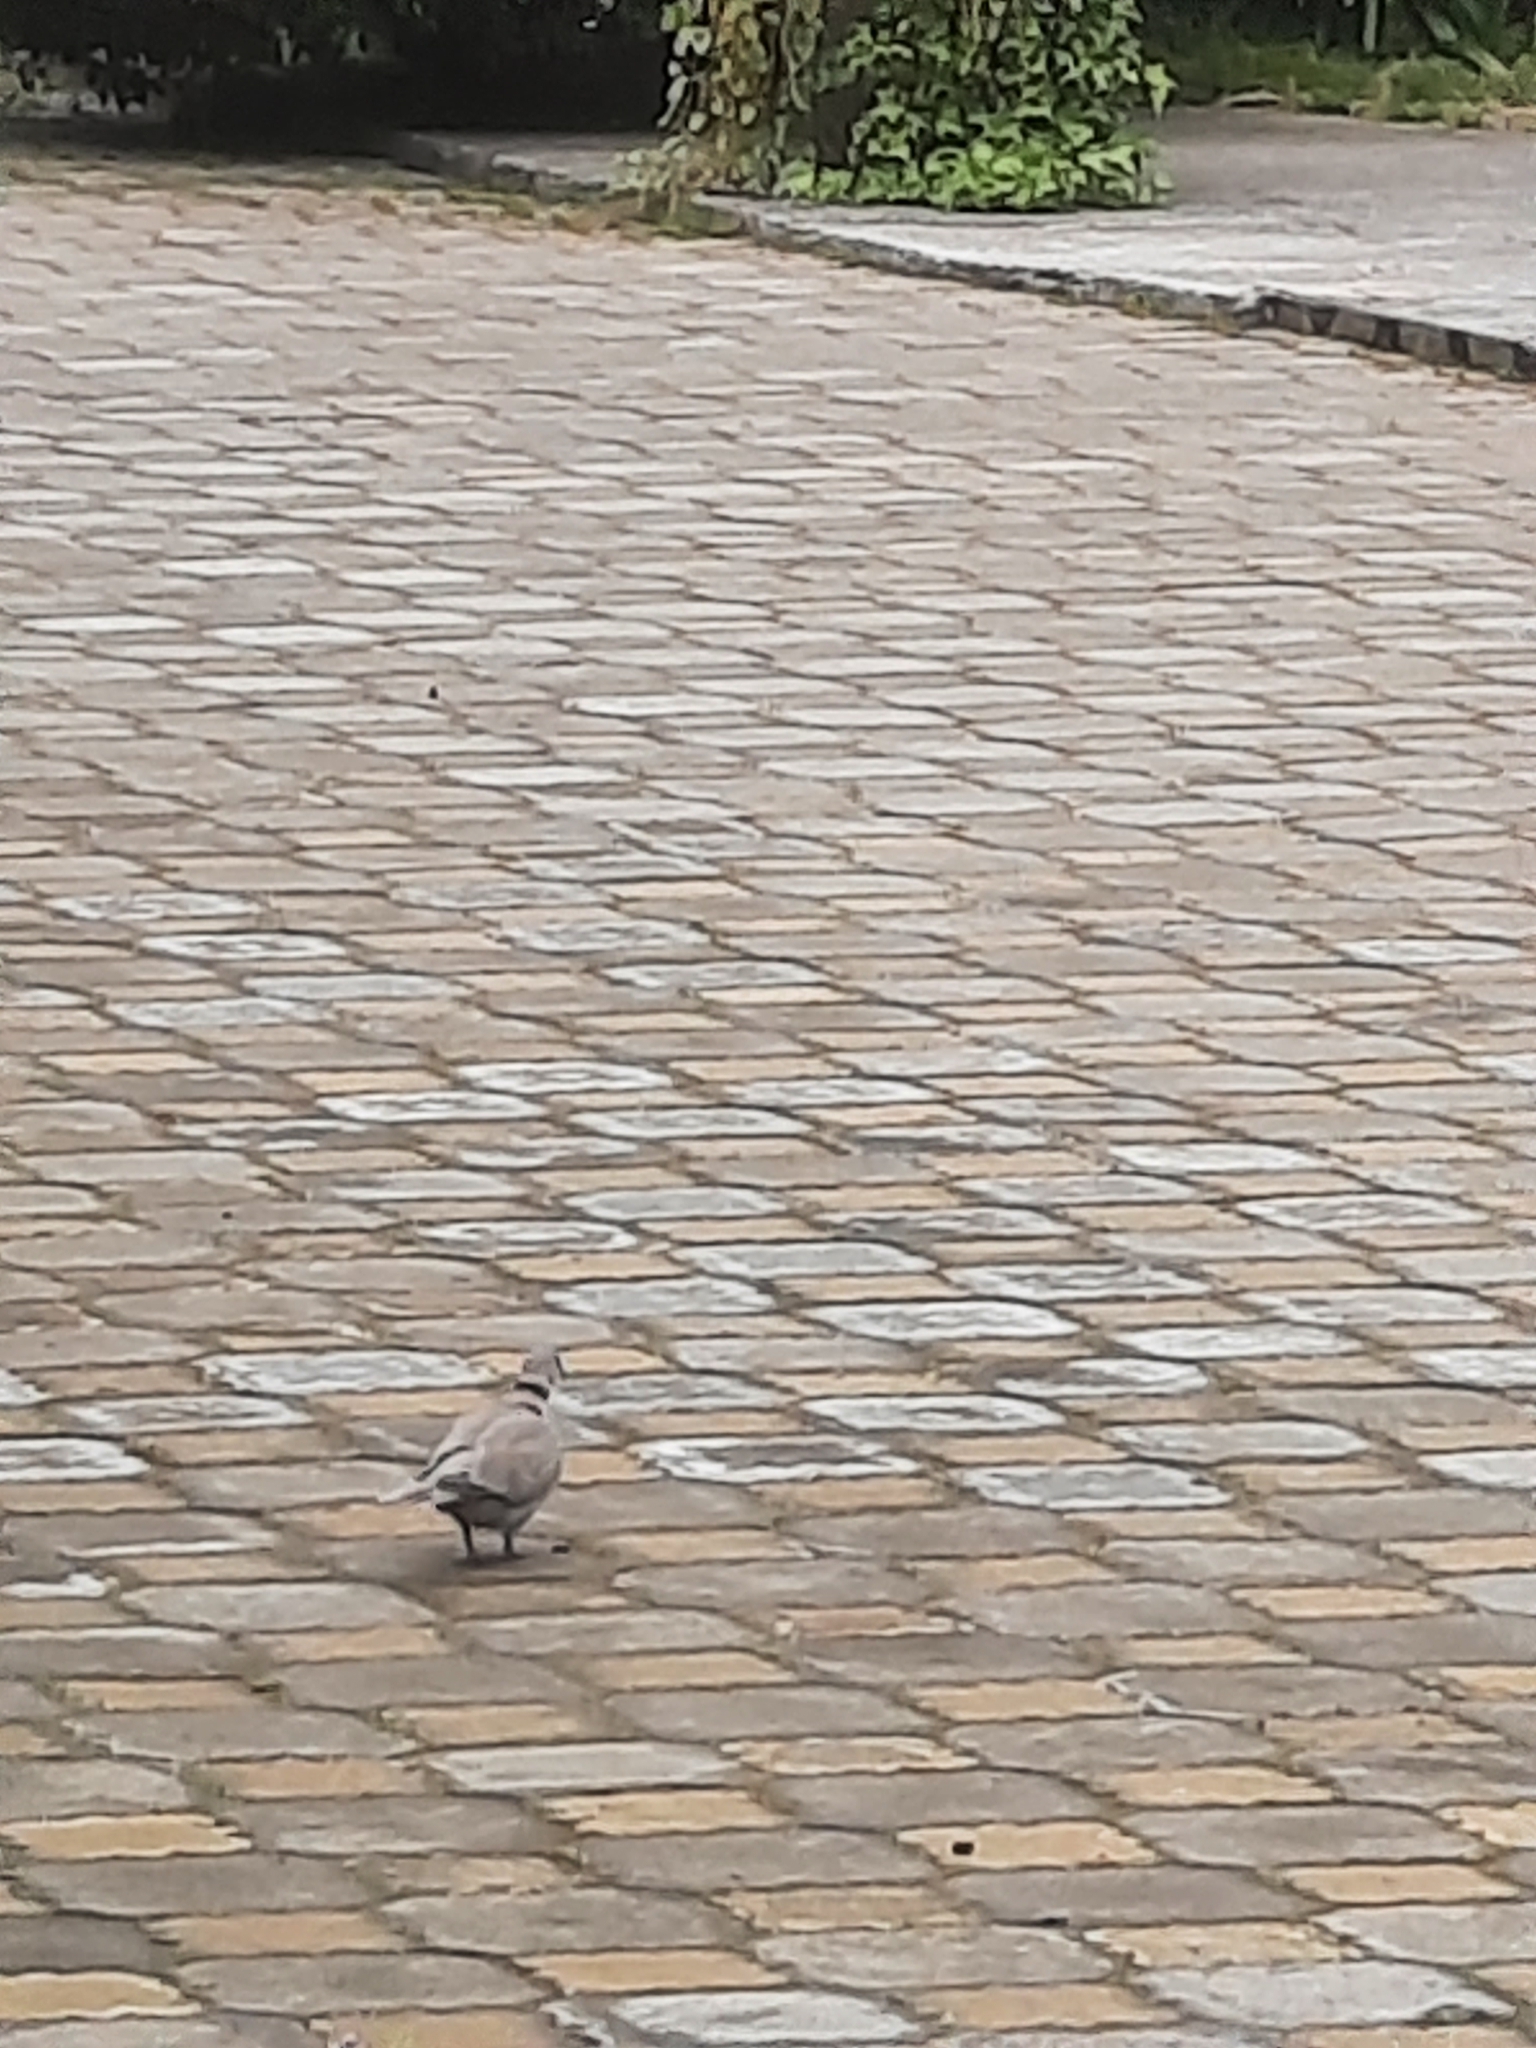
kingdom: Animalia
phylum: Chordata
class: Aves
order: Columbiformes
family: Columbidae
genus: Streptopelia
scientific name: Streptopelia decaocto
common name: Eurasian collared dove
